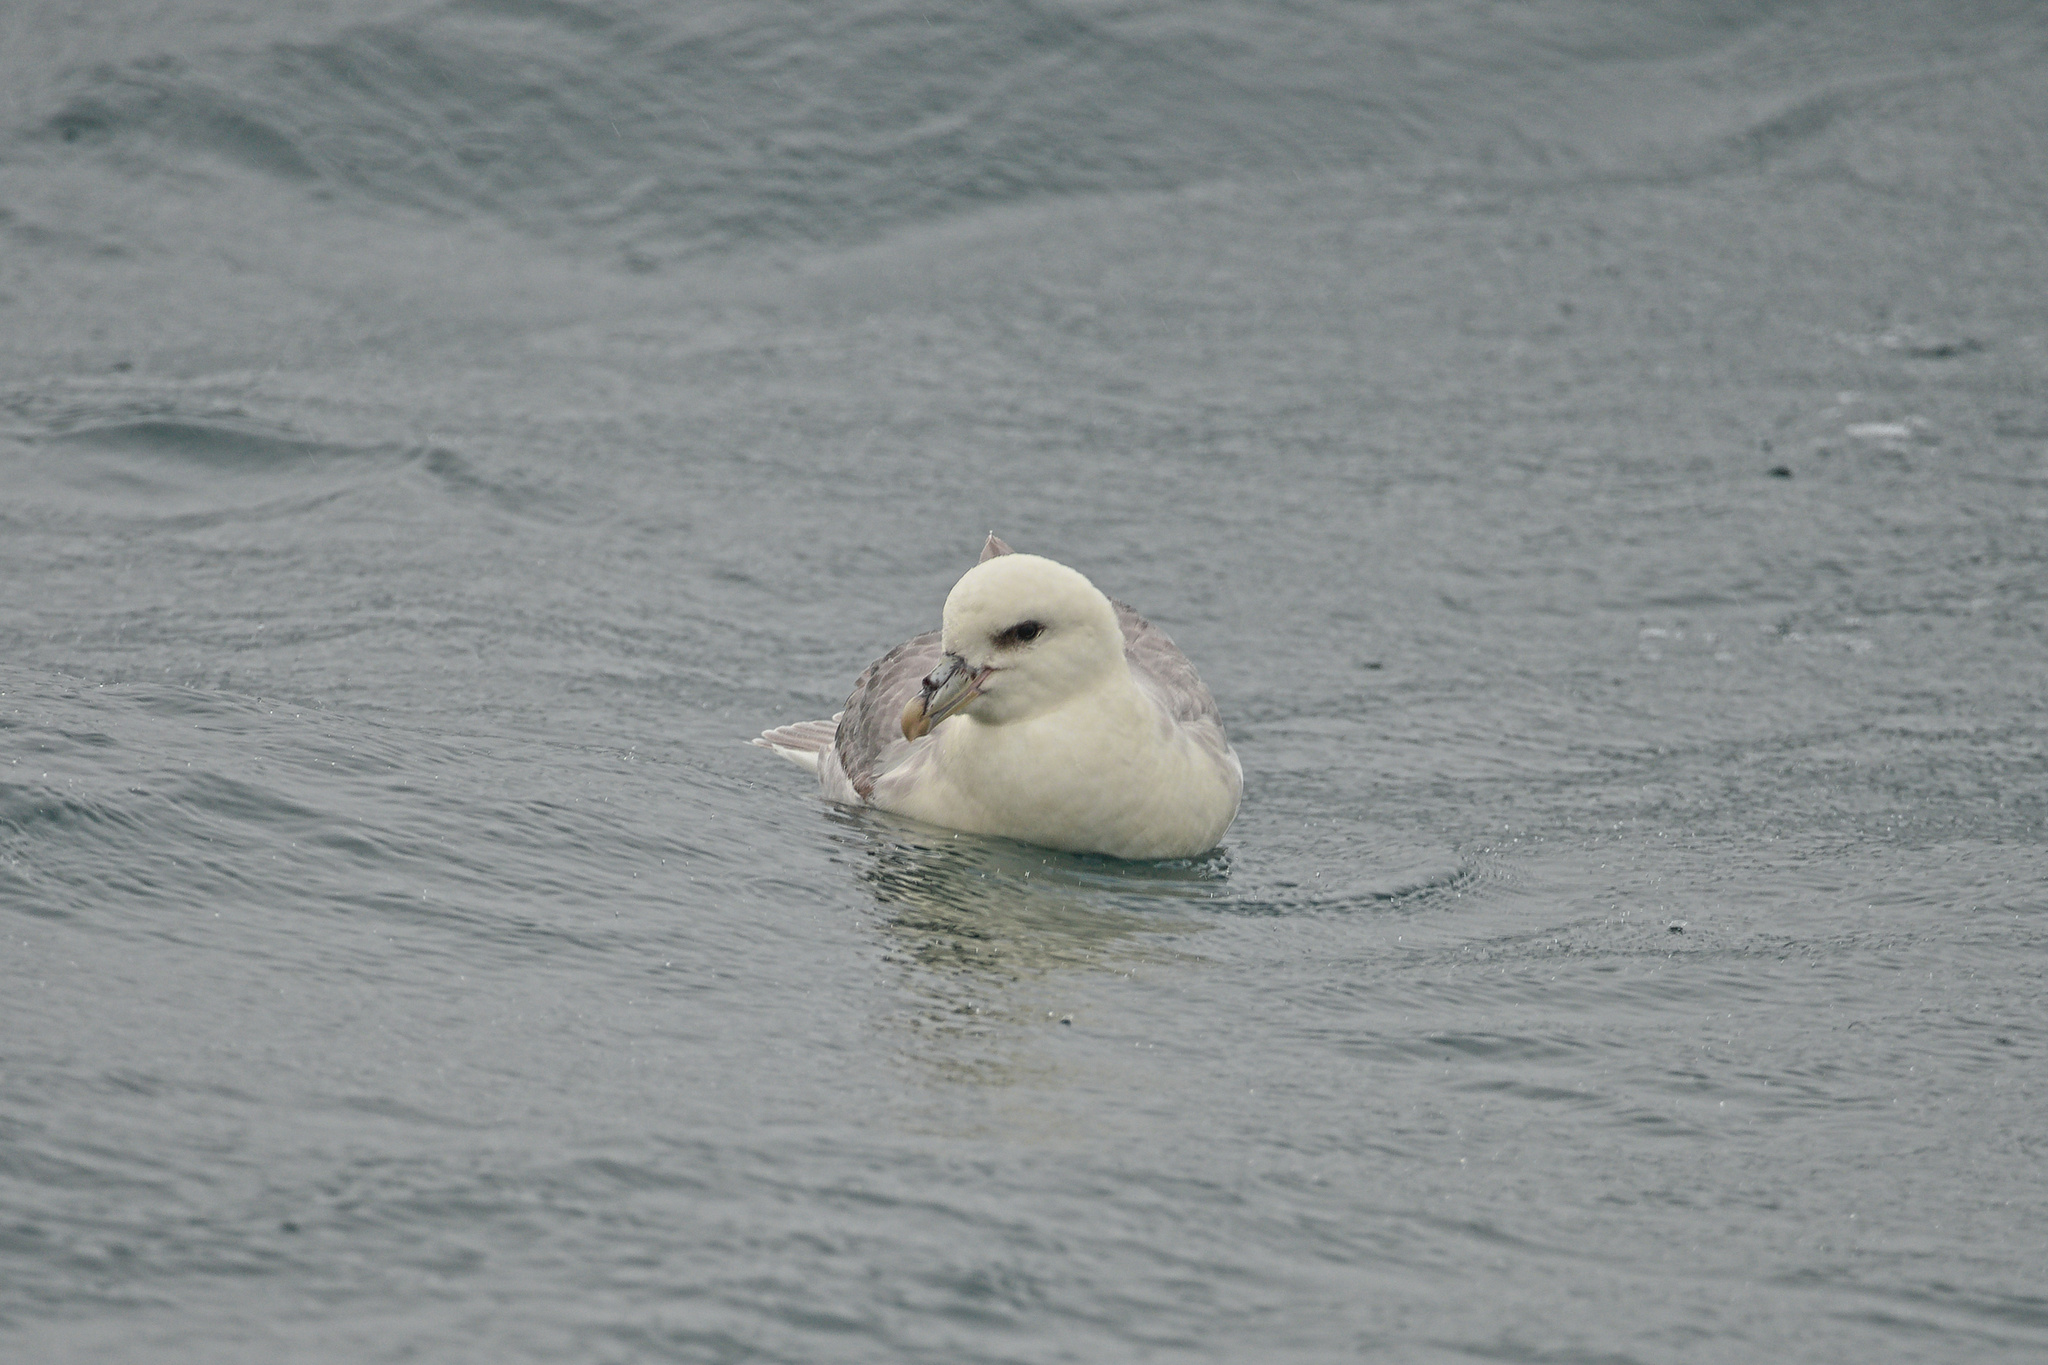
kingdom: Animalia
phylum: Chordata
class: Aves
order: Procellariiformes
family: Procellariidae
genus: Fulmarus
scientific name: Fulmarus glacialis
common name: Northern fulmar
